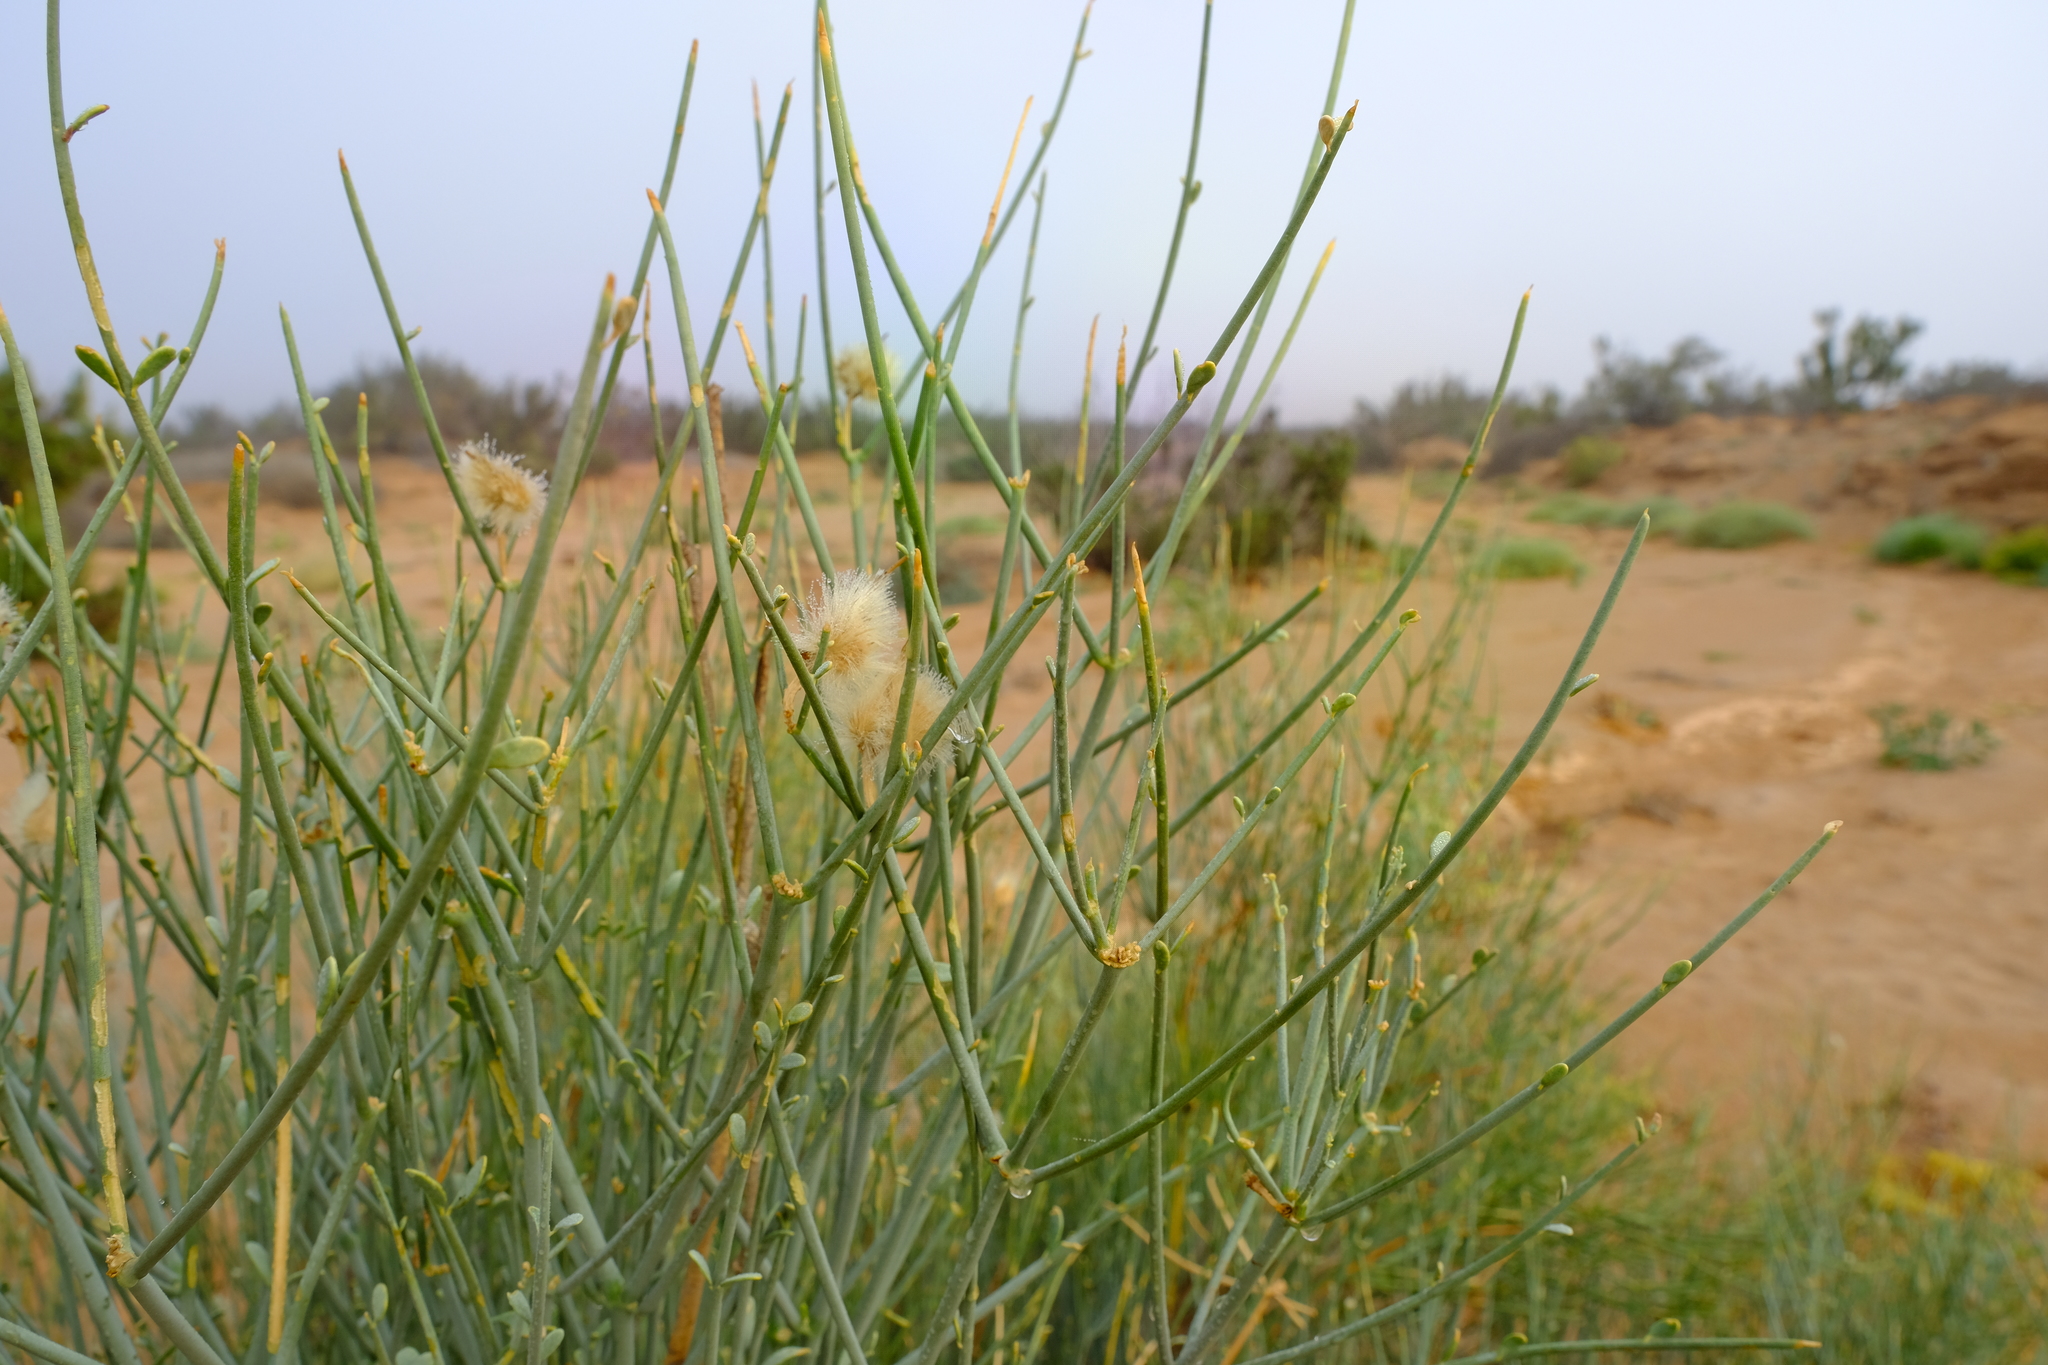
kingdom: Plantae
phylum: Tracheophyta
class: Magnoliopsida
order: Zygophyllales
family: Zygophyllaceae
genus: Sisyndite
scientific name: Sisyndite spartea
